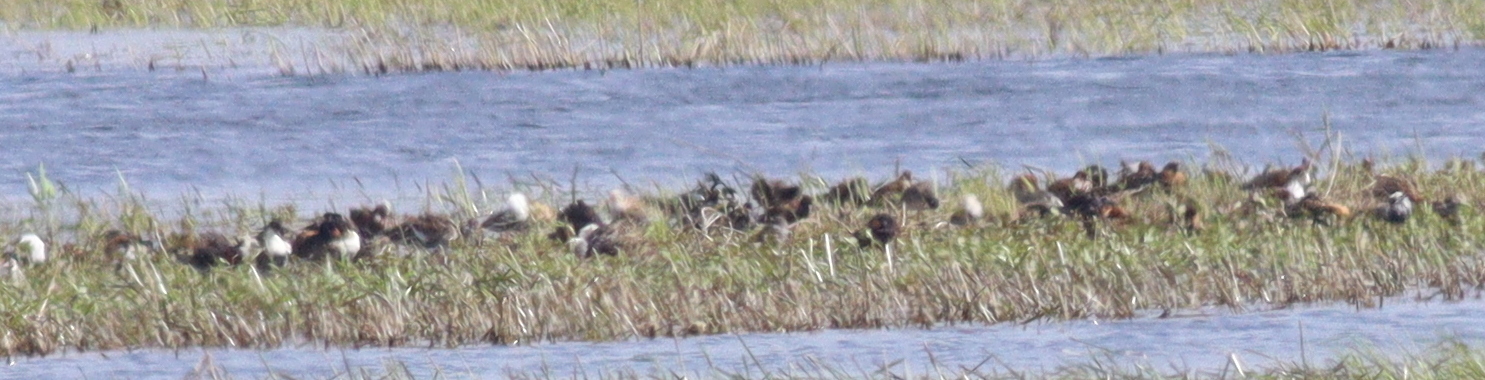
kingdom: Animalia
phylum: Chordata
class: Aves
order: Charadriiformes
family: Scolopacidae
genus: Calidris
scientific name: Calidris pugnax
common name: Ruff
